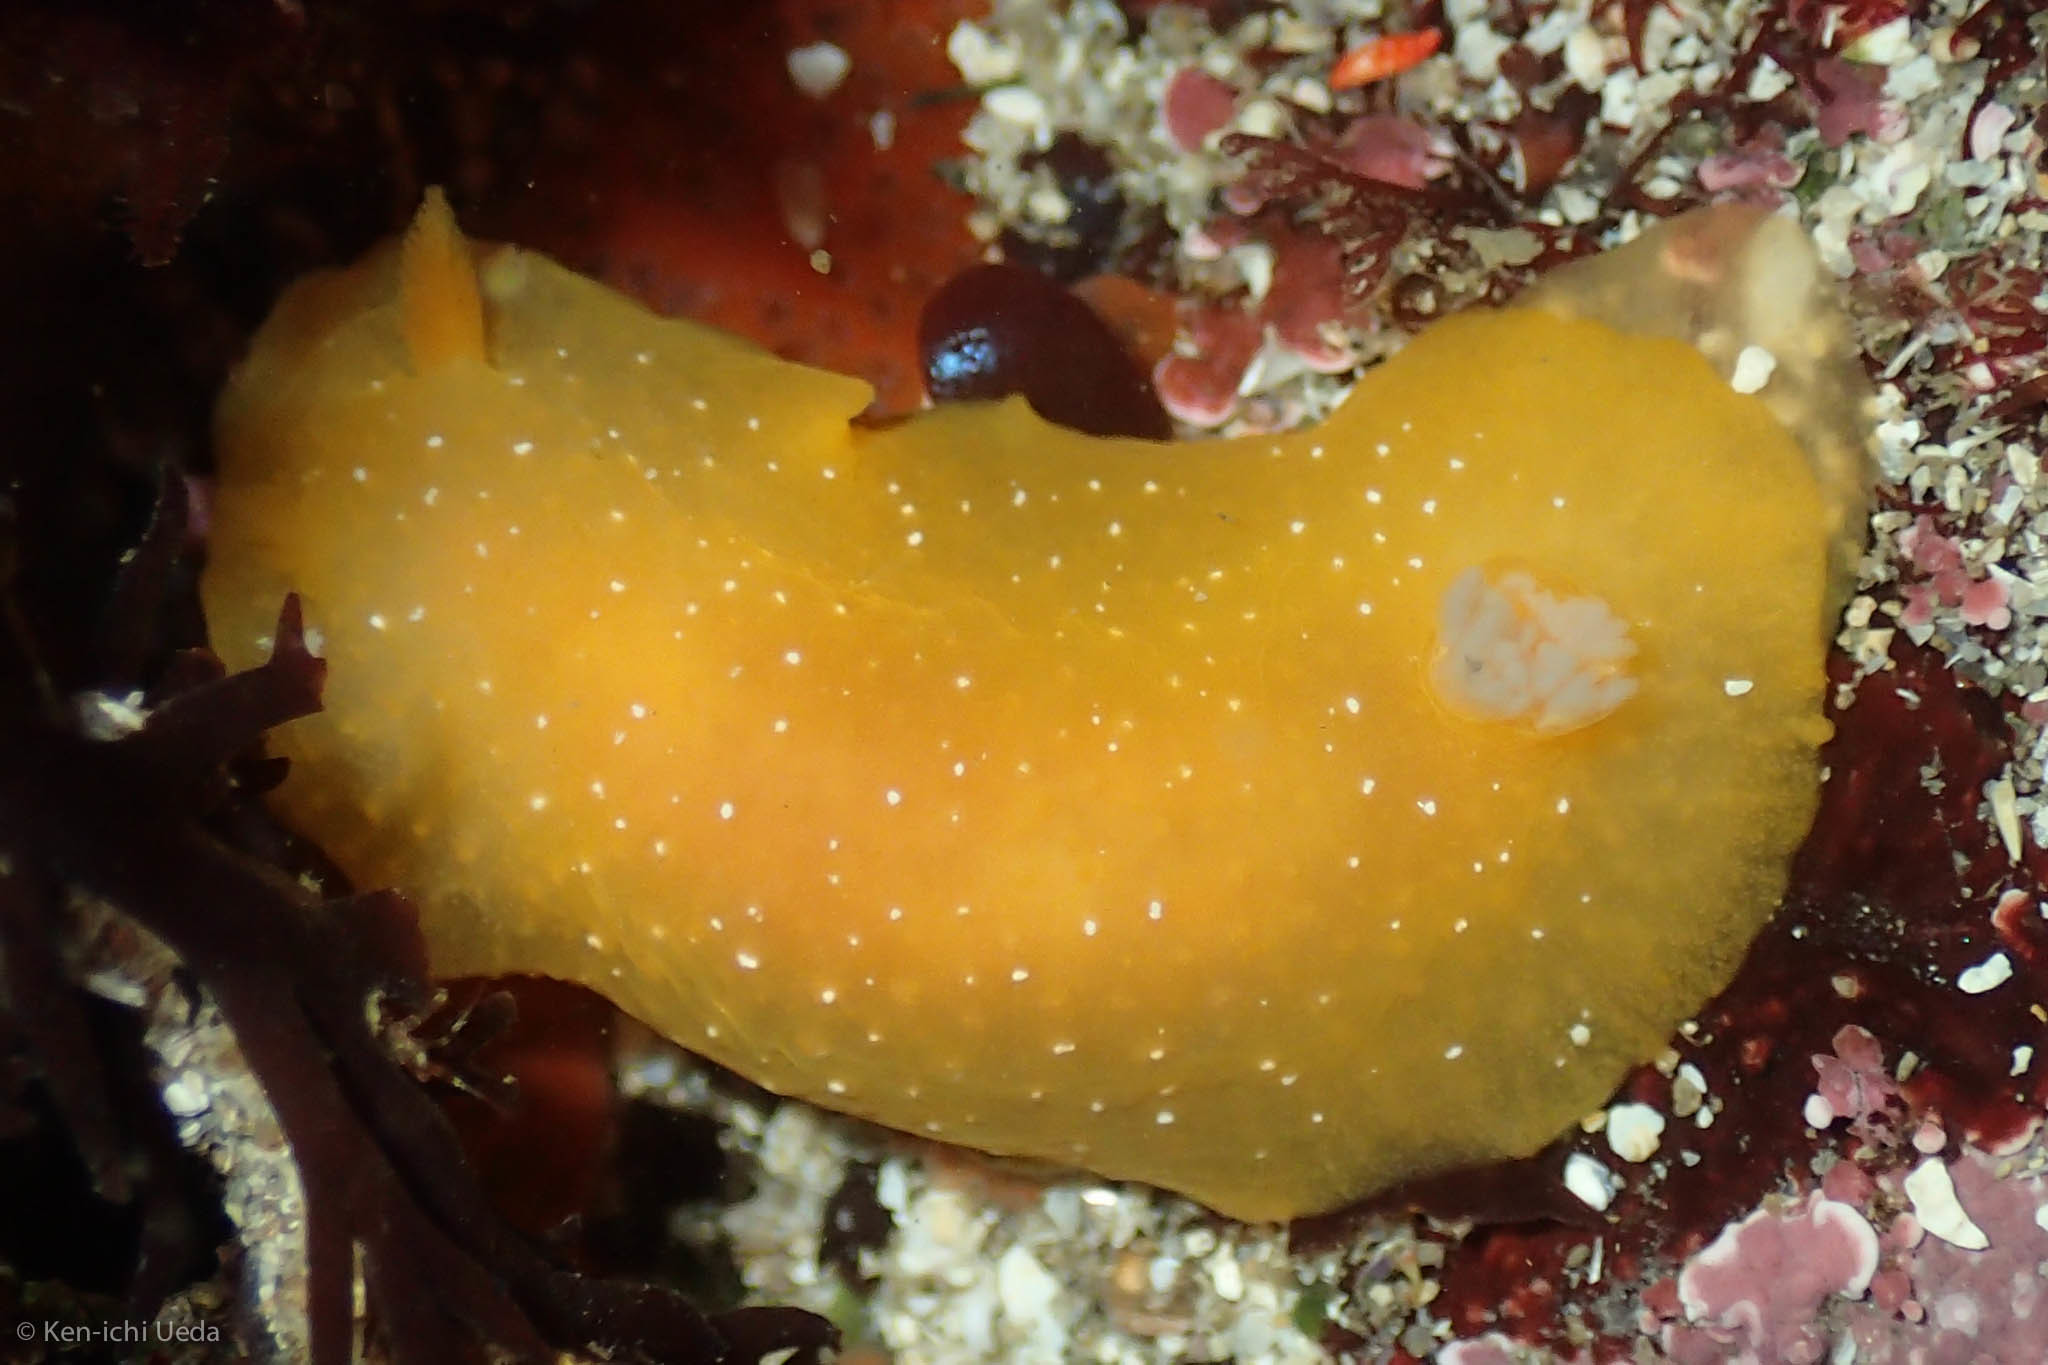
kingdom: Animalia
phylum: Mollusca
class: Gastropoda
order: Nudibranchia
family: Dendrodorididae
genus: Doriopsilla
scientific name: Doriopsilla fulva
